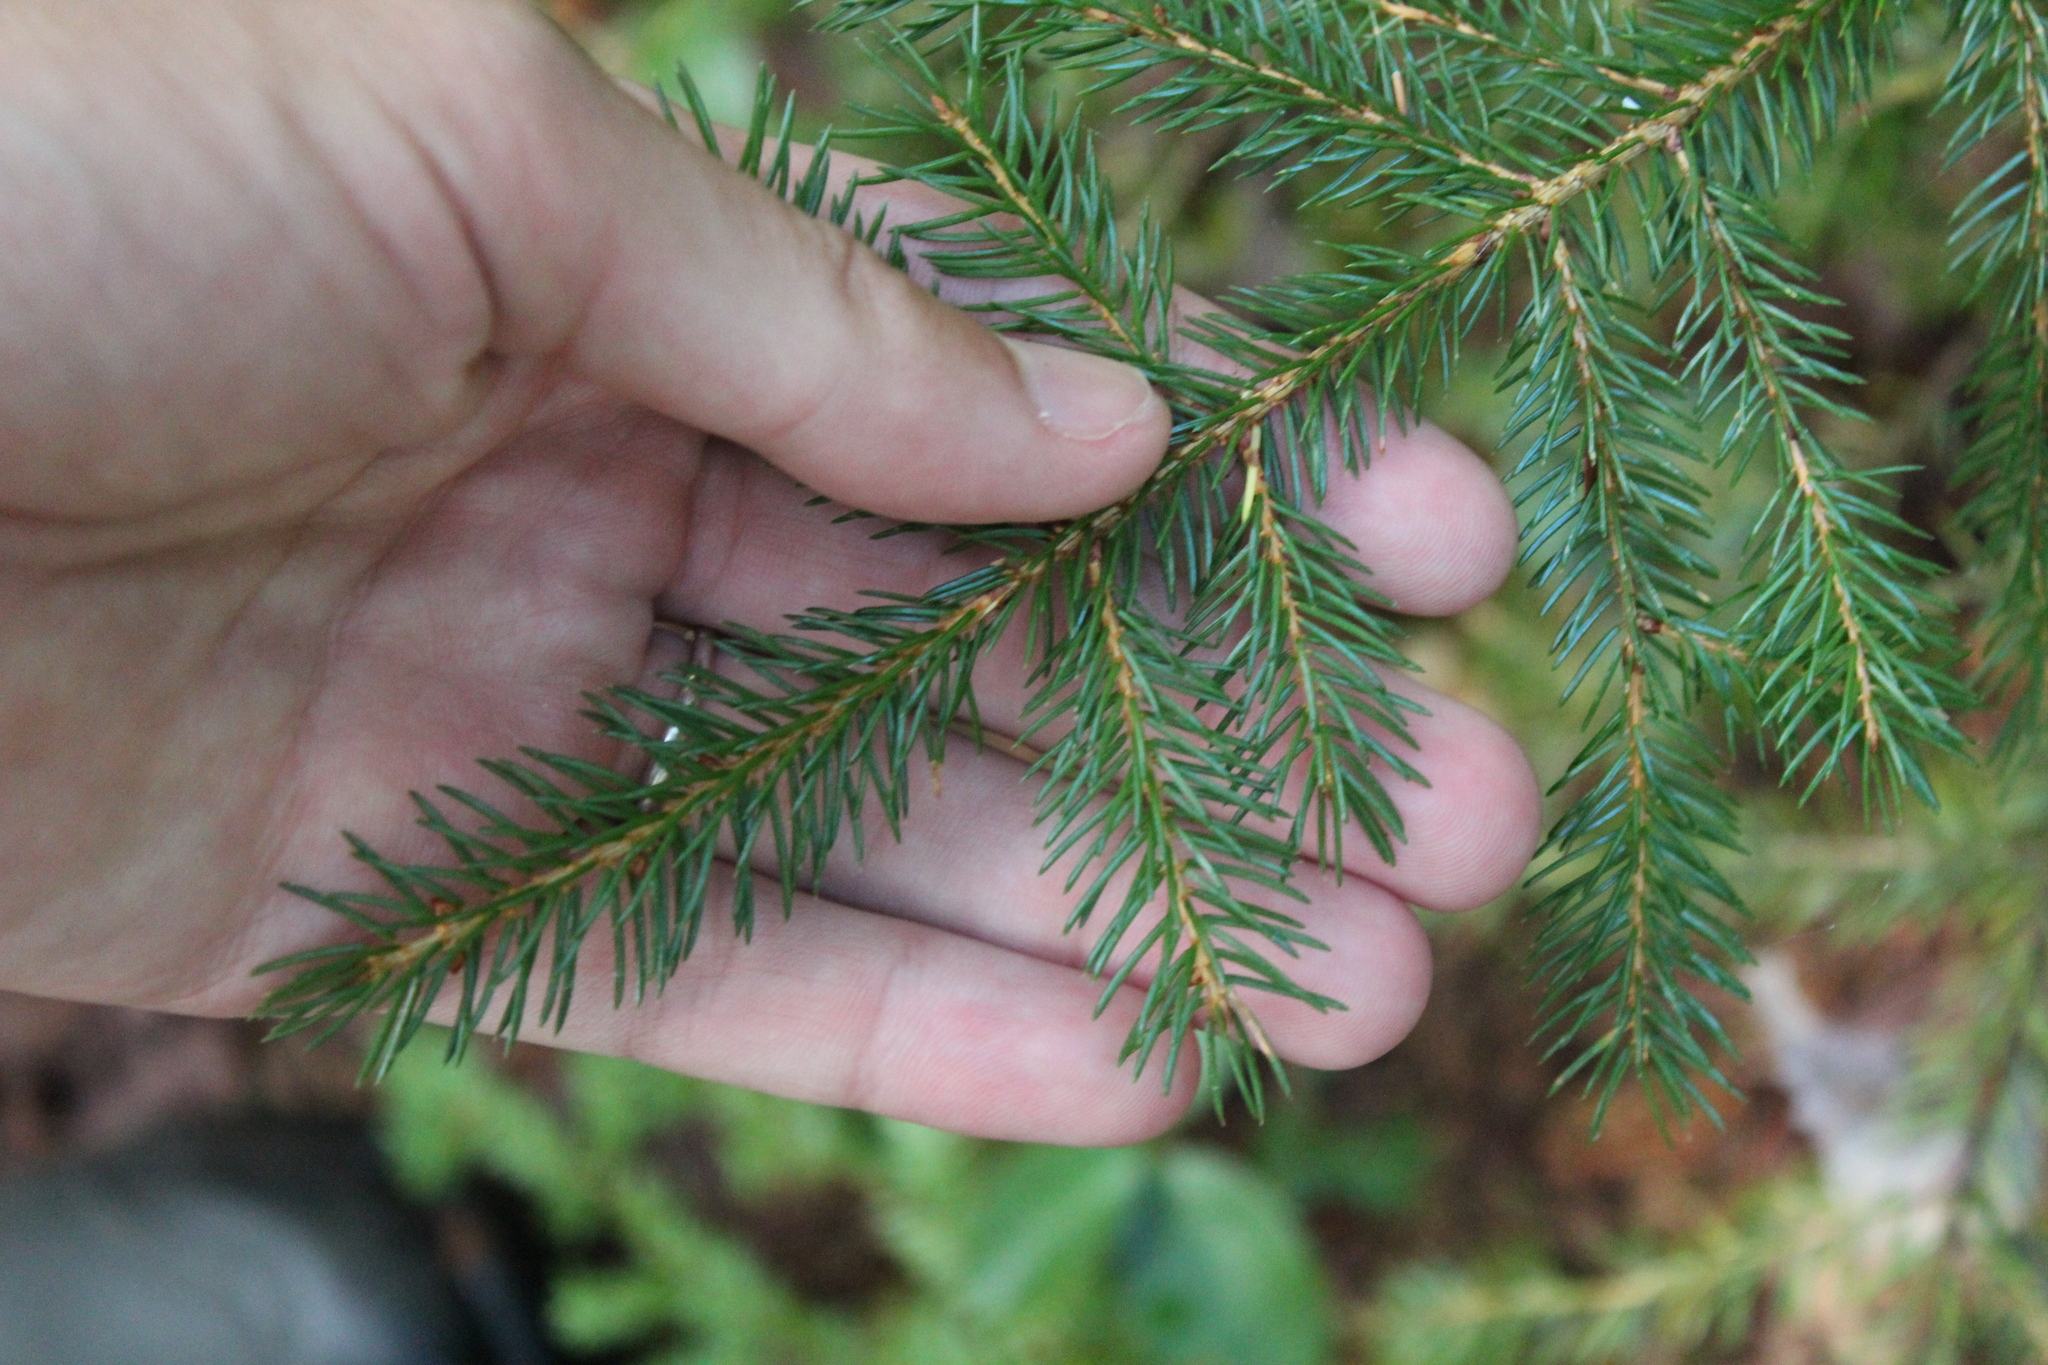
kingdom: Plantae
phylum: Tracheophyta
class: Pinopsida
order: Pinales
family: Pinaceae
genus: Picea
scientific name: Picea rubens
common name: Red spruce
